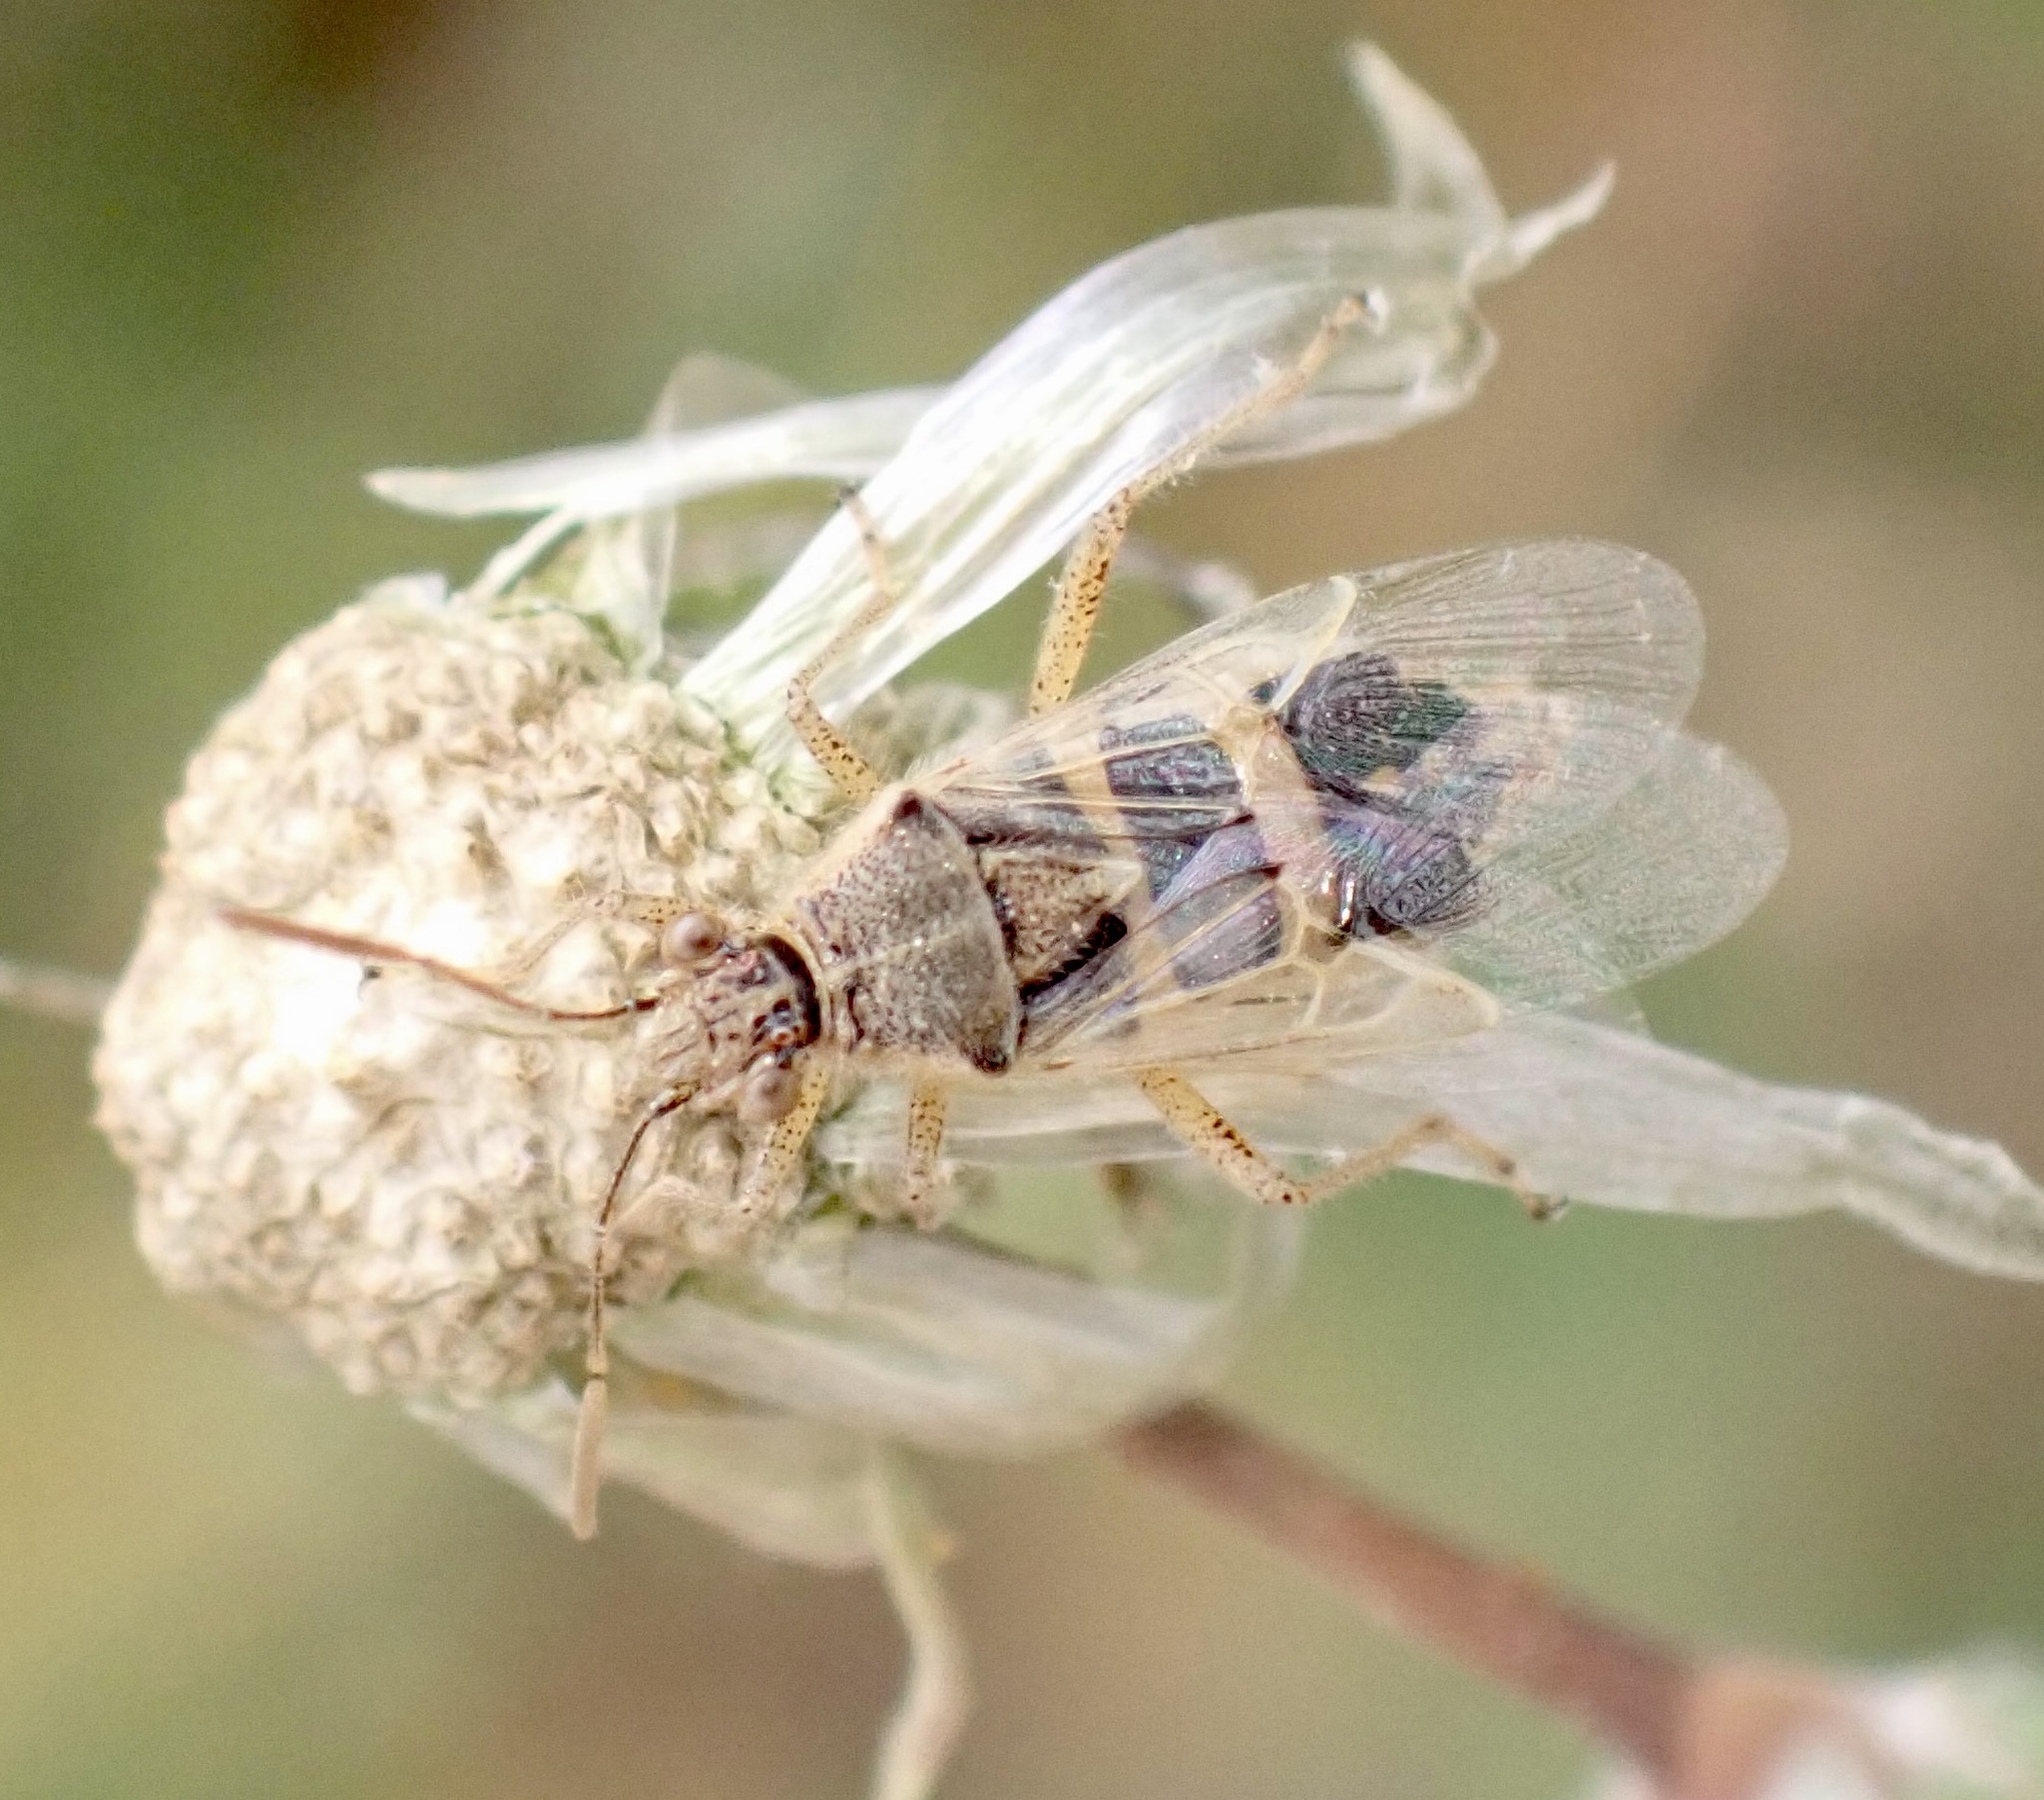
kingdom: Animalia
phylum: Arthropoda
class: Insecta
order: Hemiptera
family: Rhopalidae
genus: Liorhyssus
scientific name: Liorhyssus hyalinus
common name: Scentless plant bug
